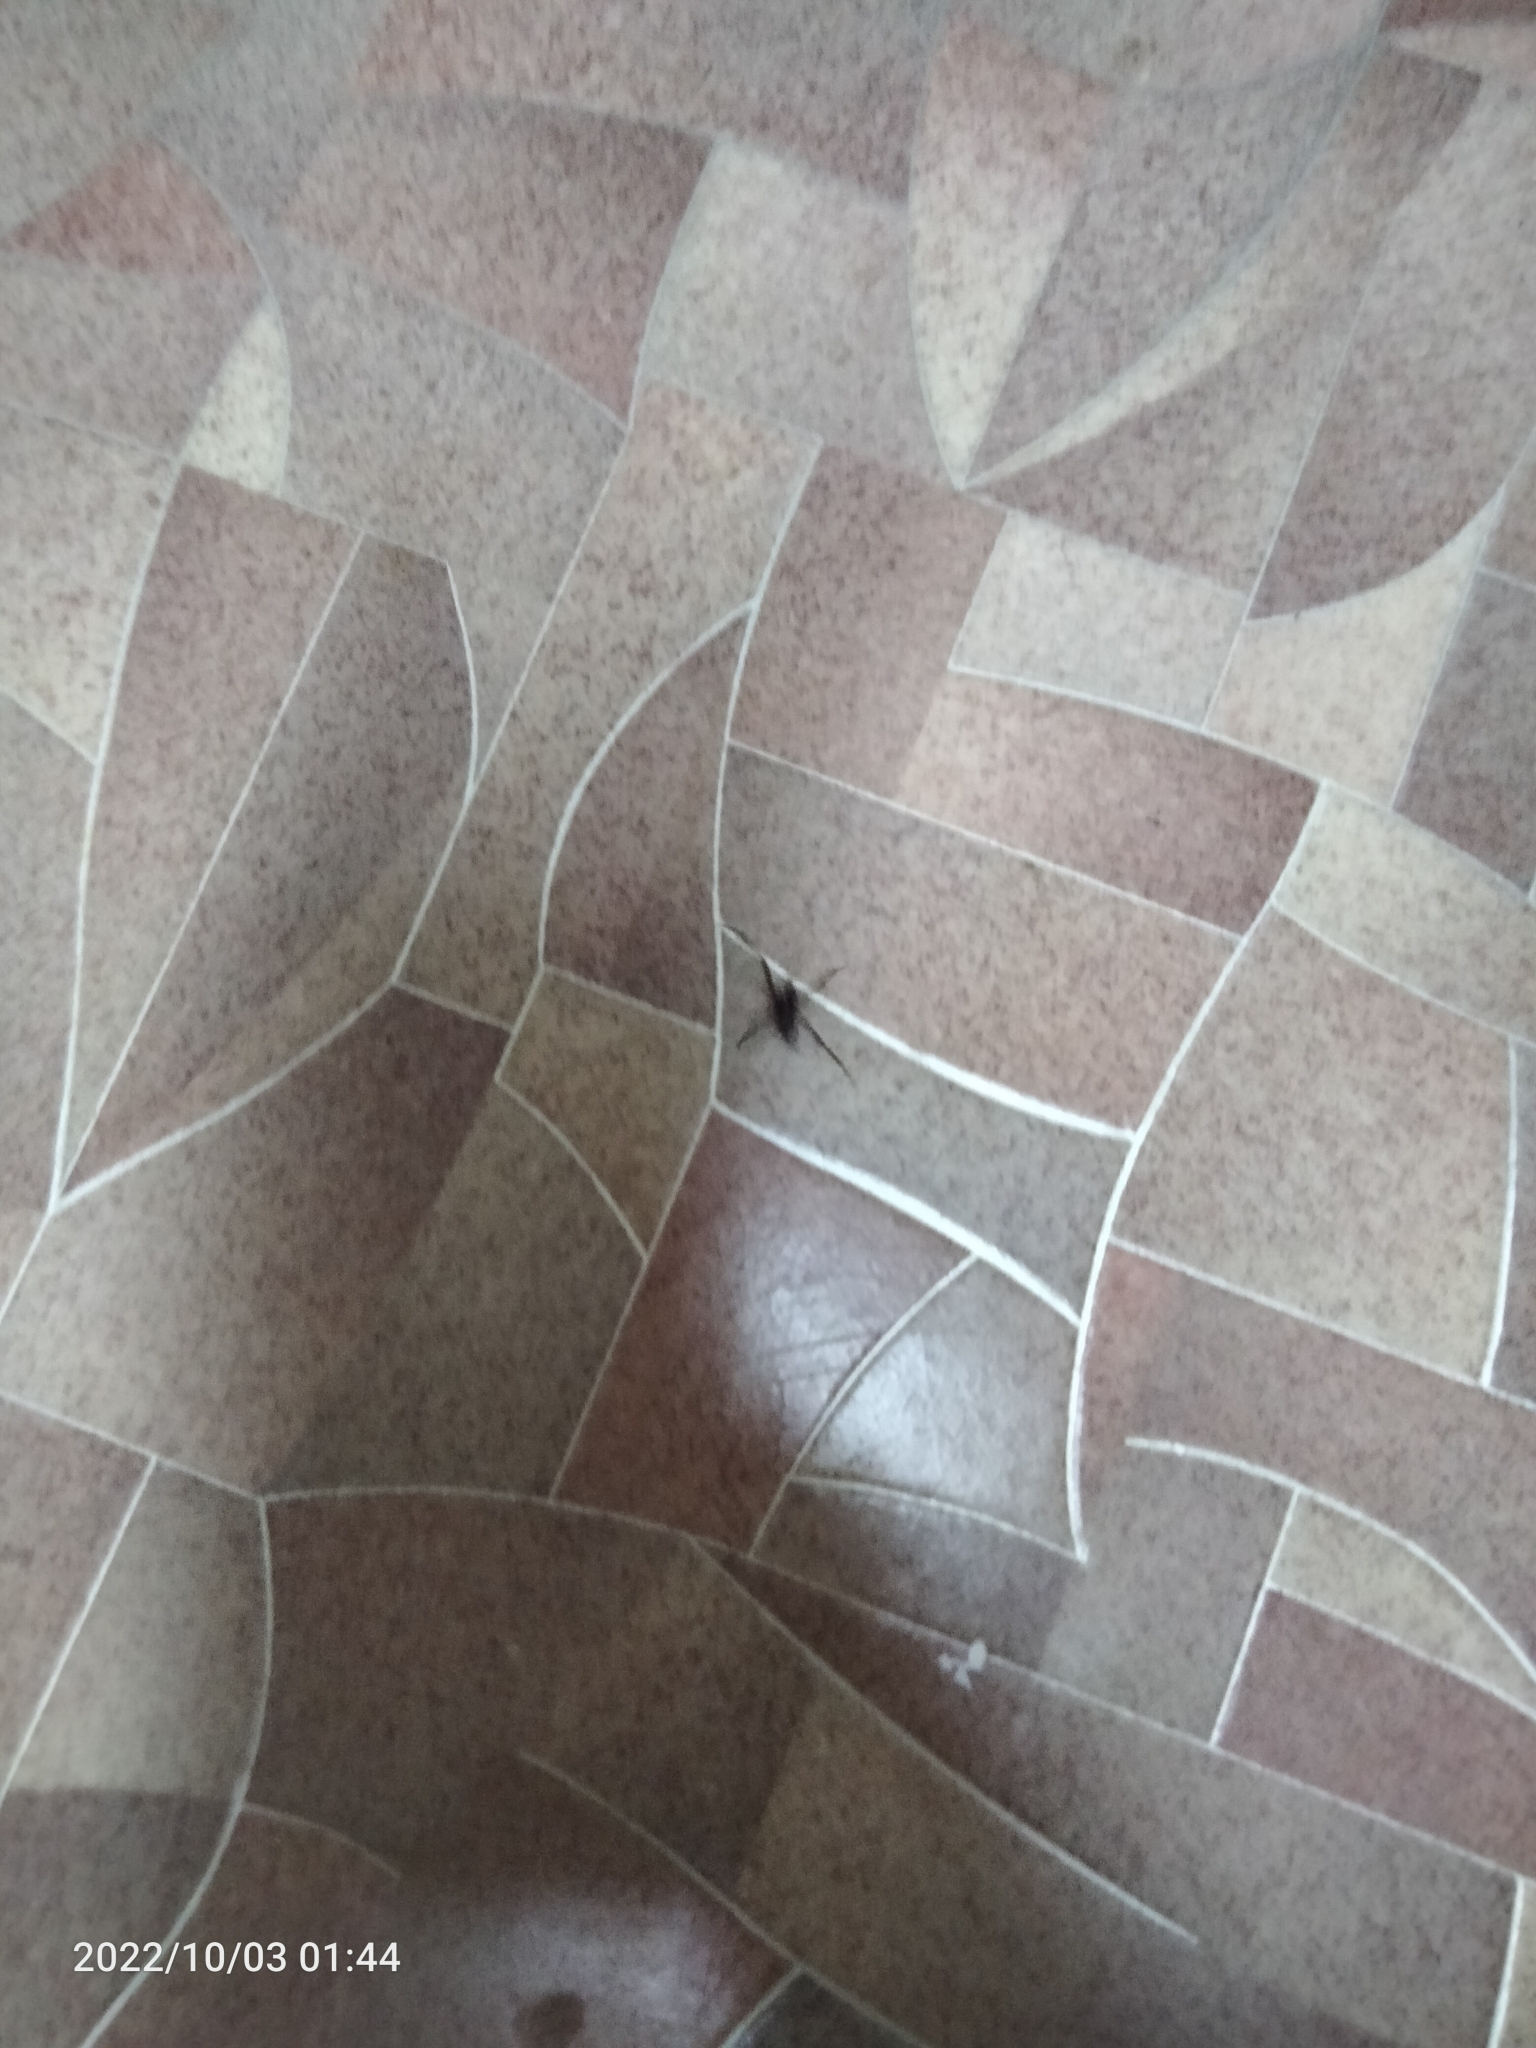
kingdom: Animalia
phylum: Arthropoda
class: Arachnida
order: Araneae
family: Theridiidae
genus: Steatoda
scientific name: Steatoda grossa
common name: False black widow
